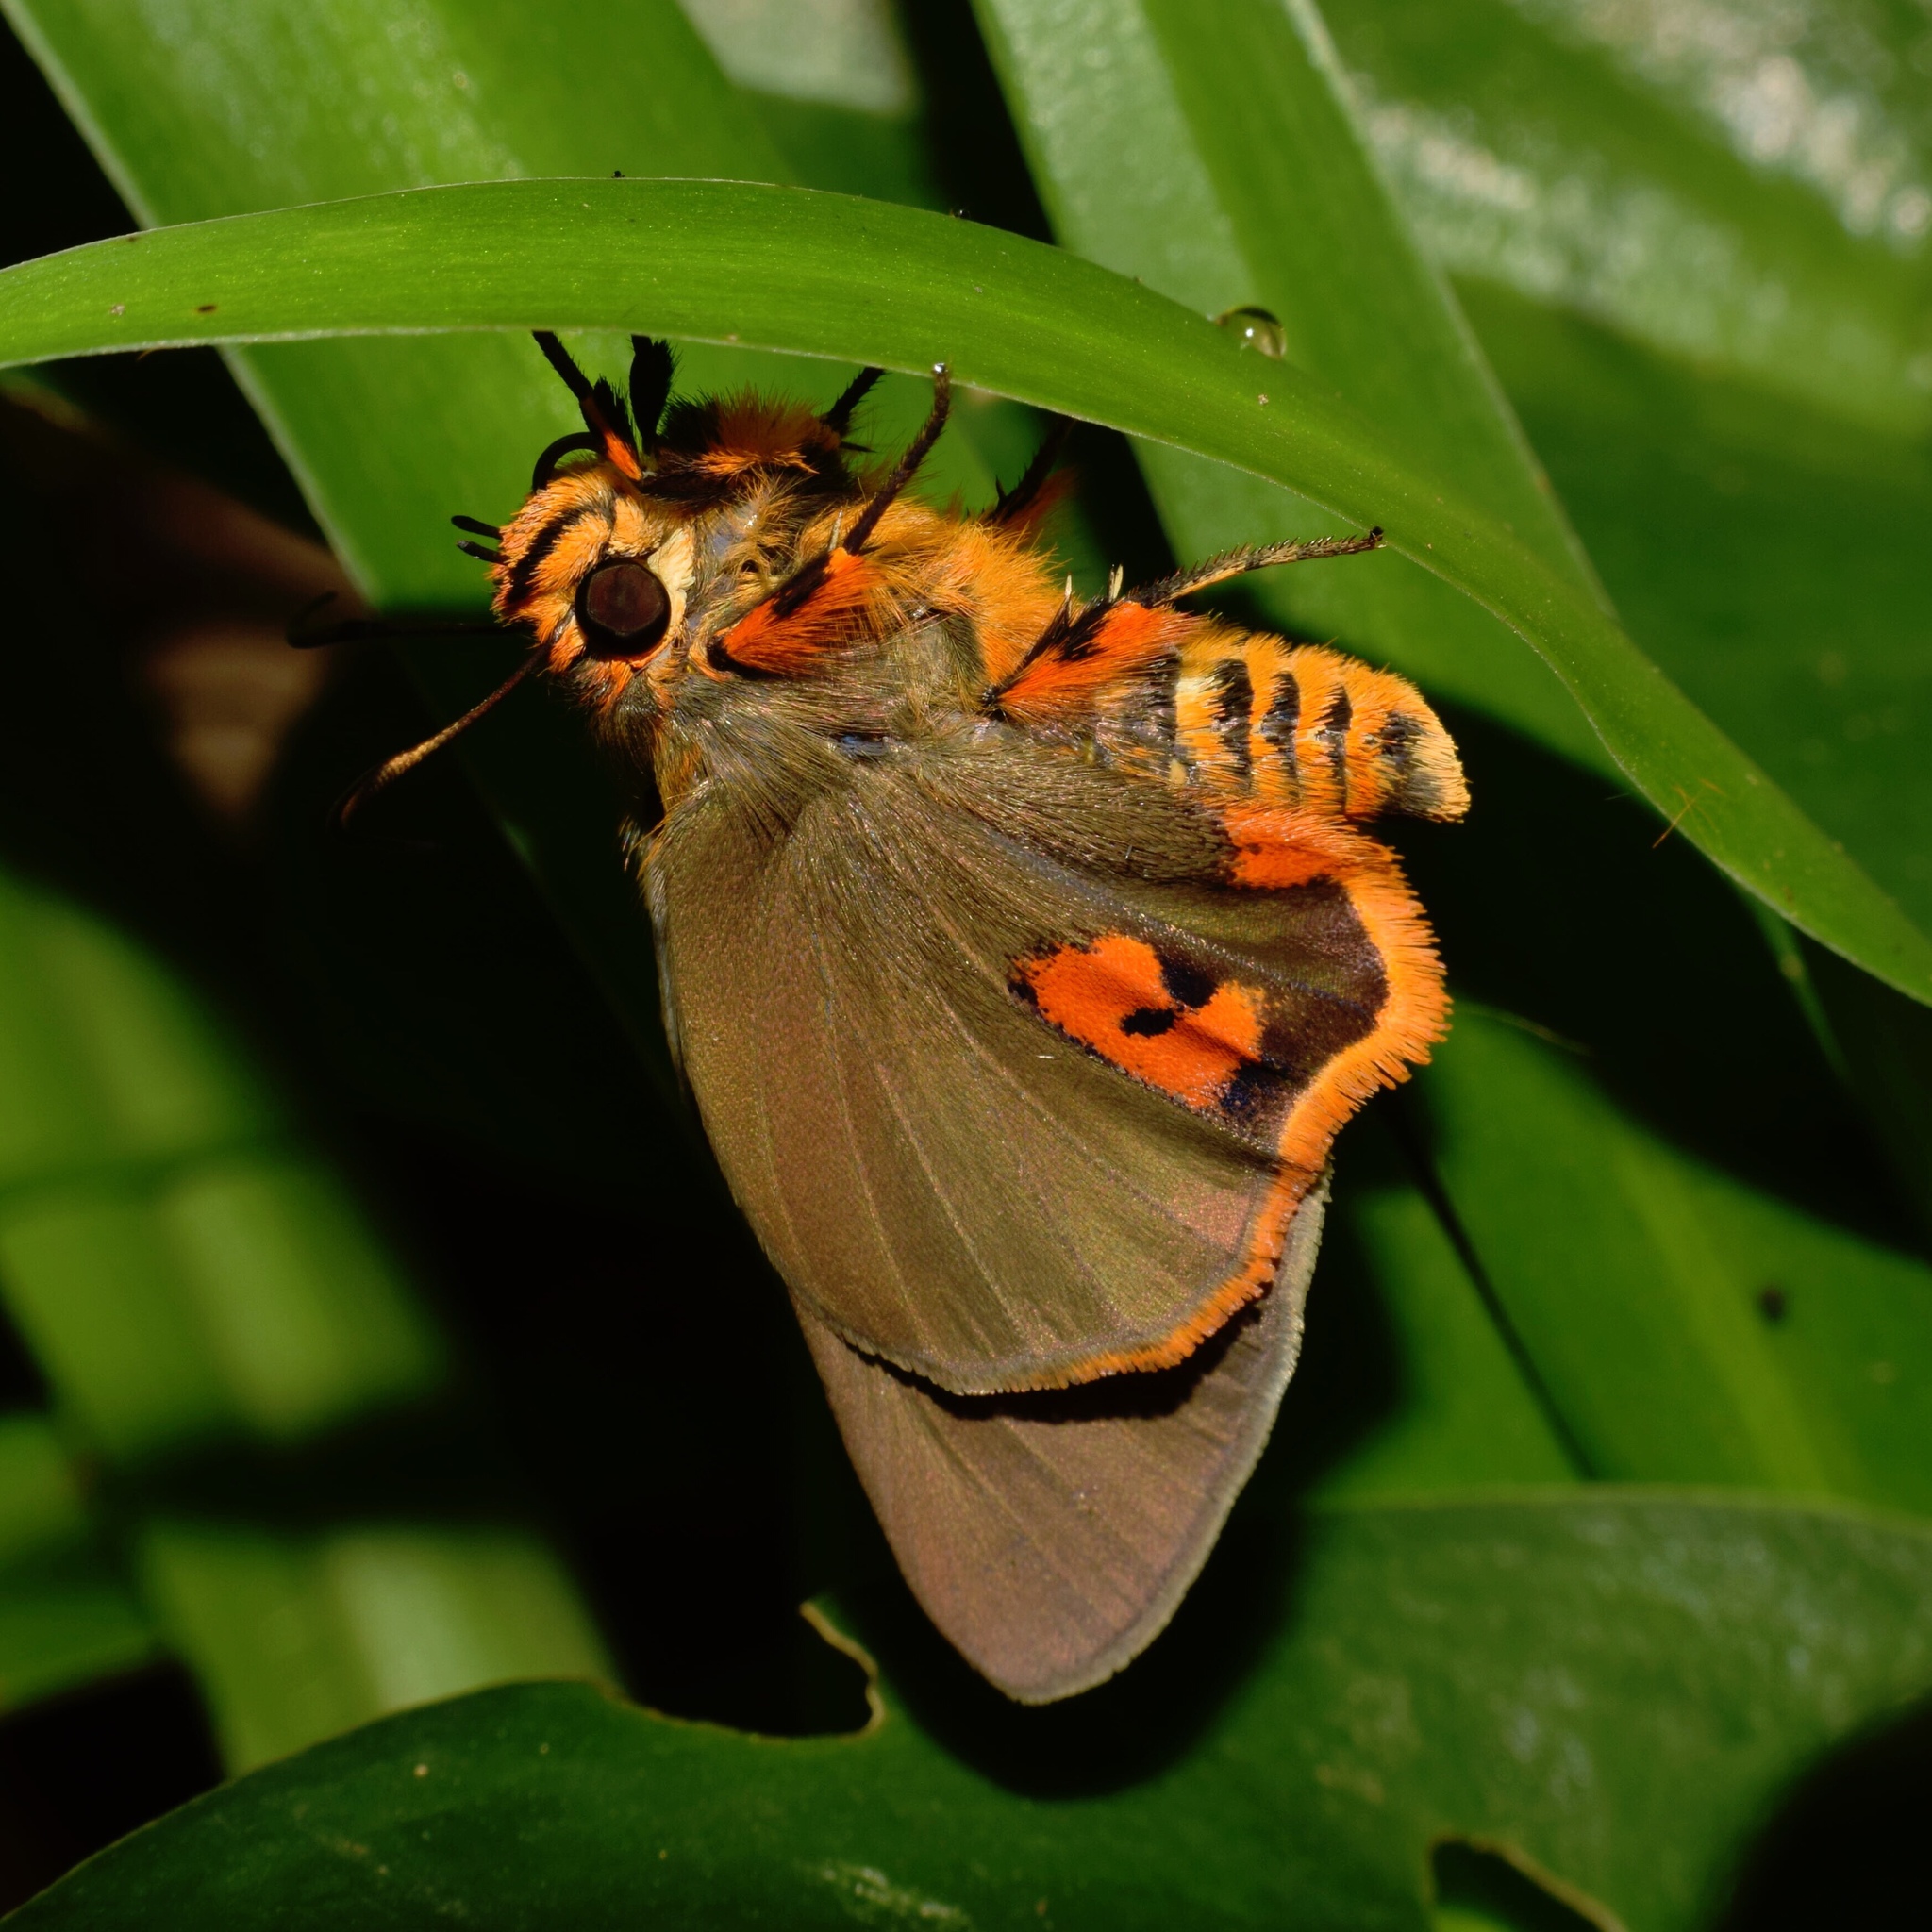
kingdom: Animalia
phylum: Arthropoda
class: Insecta
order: Lepidoptera
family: Hesperiidae
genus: Coeliades
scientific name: Coeliades keithloa
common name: Red-tab policeman
